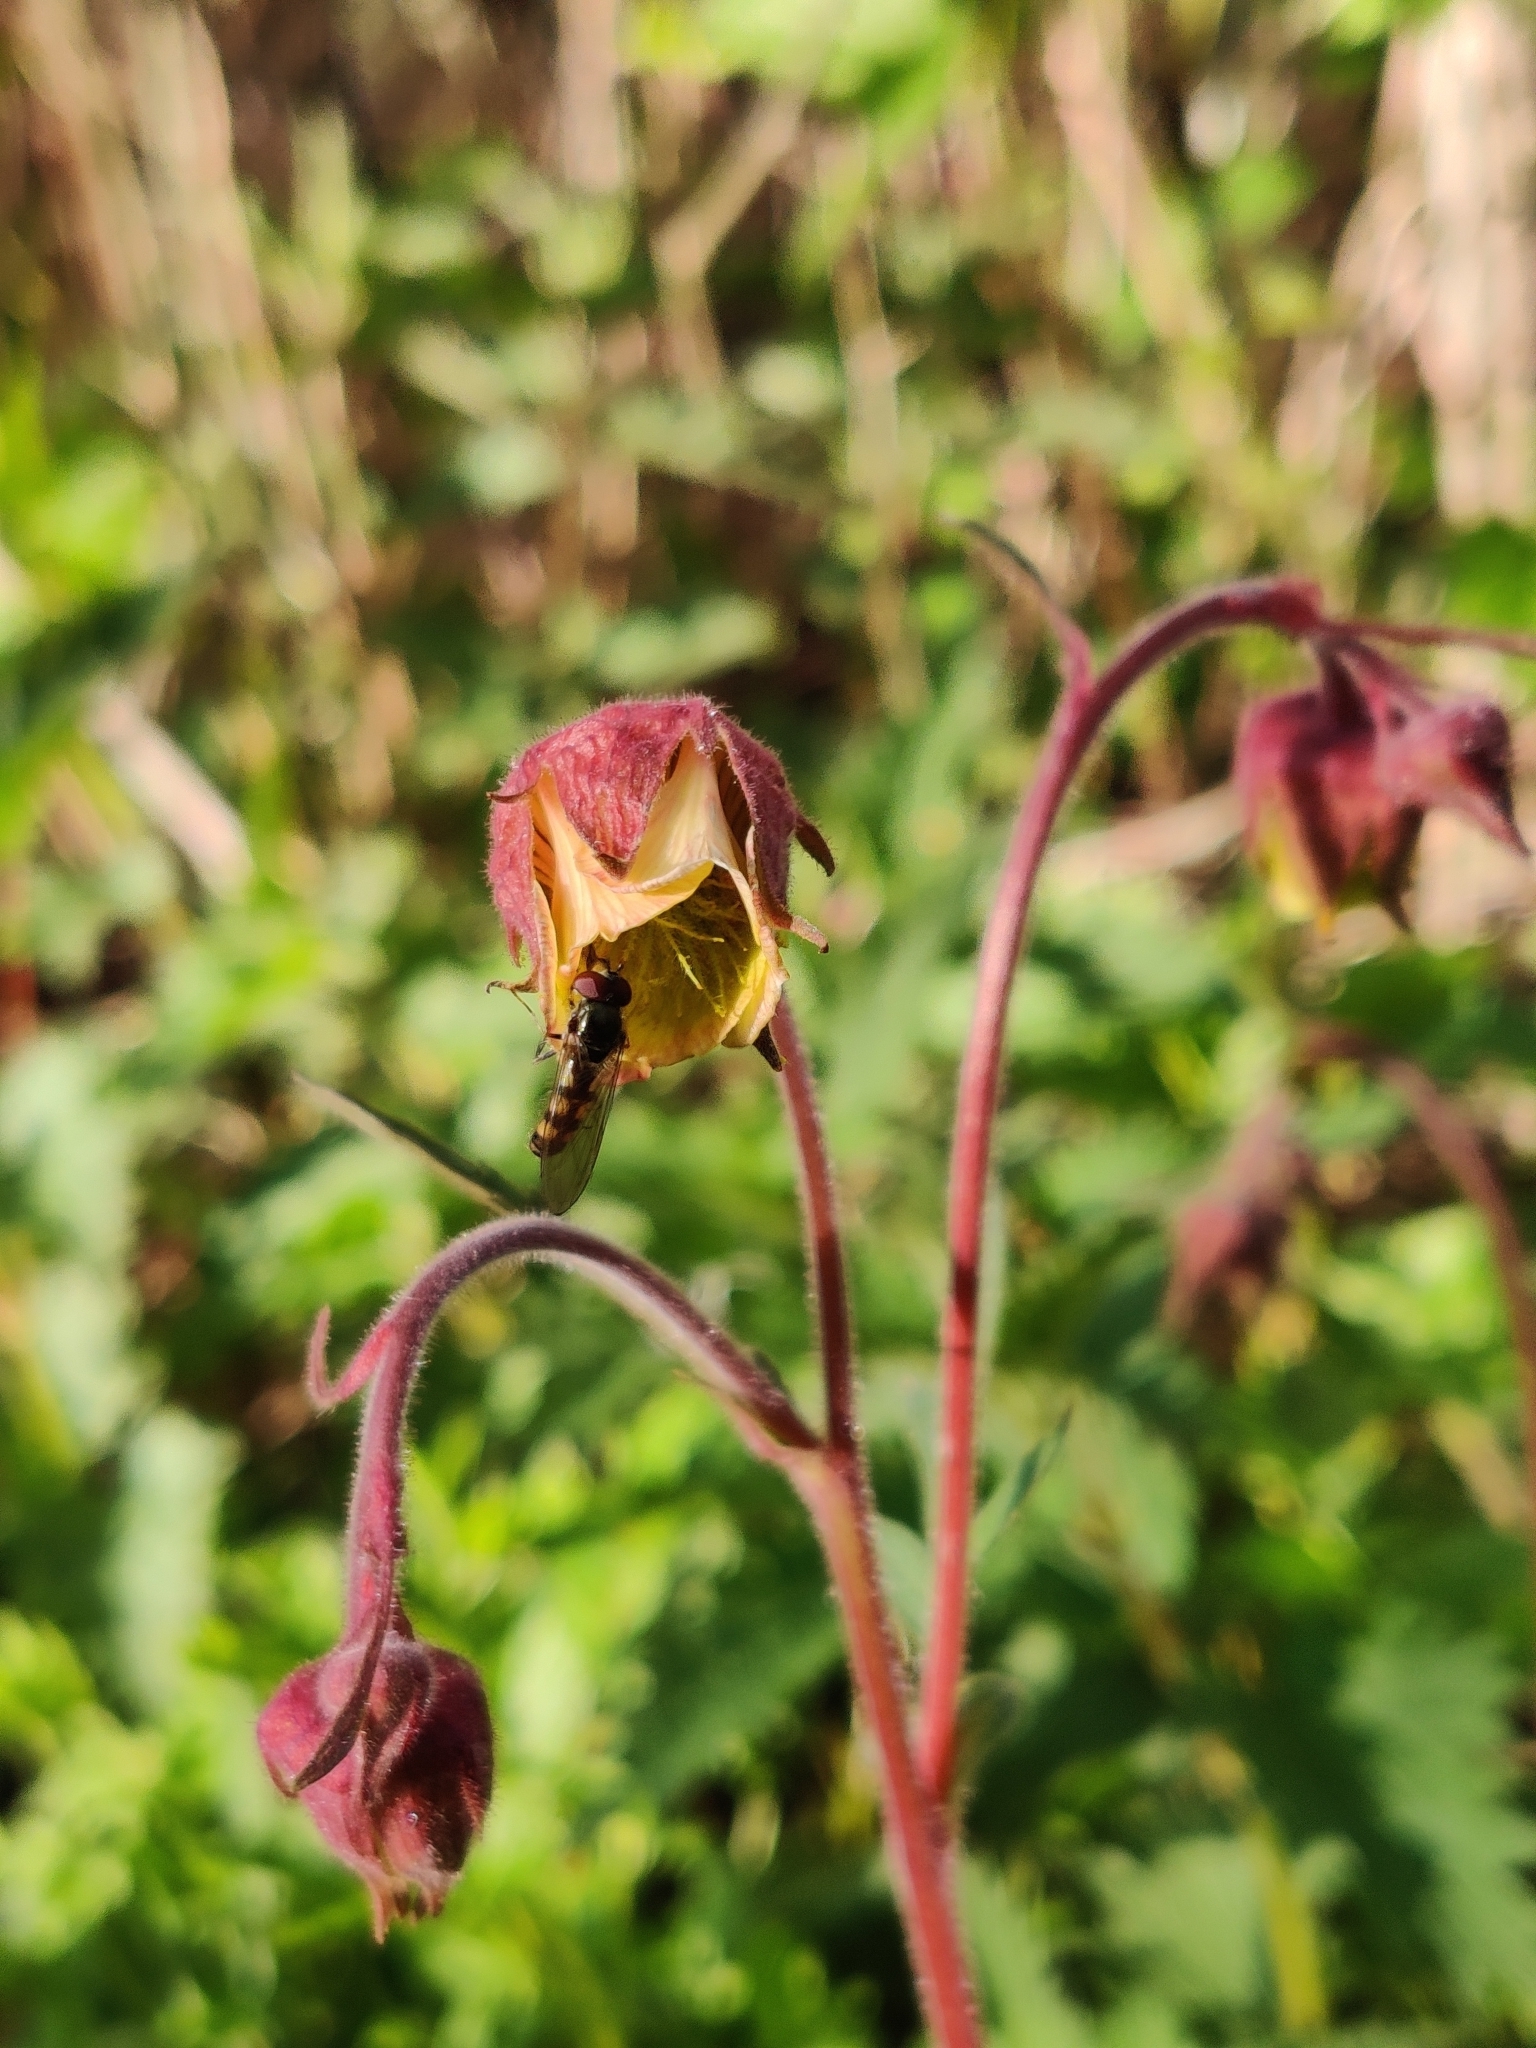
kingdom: Plantae
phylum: Tracheophyta
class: Magnoliopsida
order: Rosales
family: Rosaceae
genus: Geum
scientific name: Geum rivale
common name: Water avens
